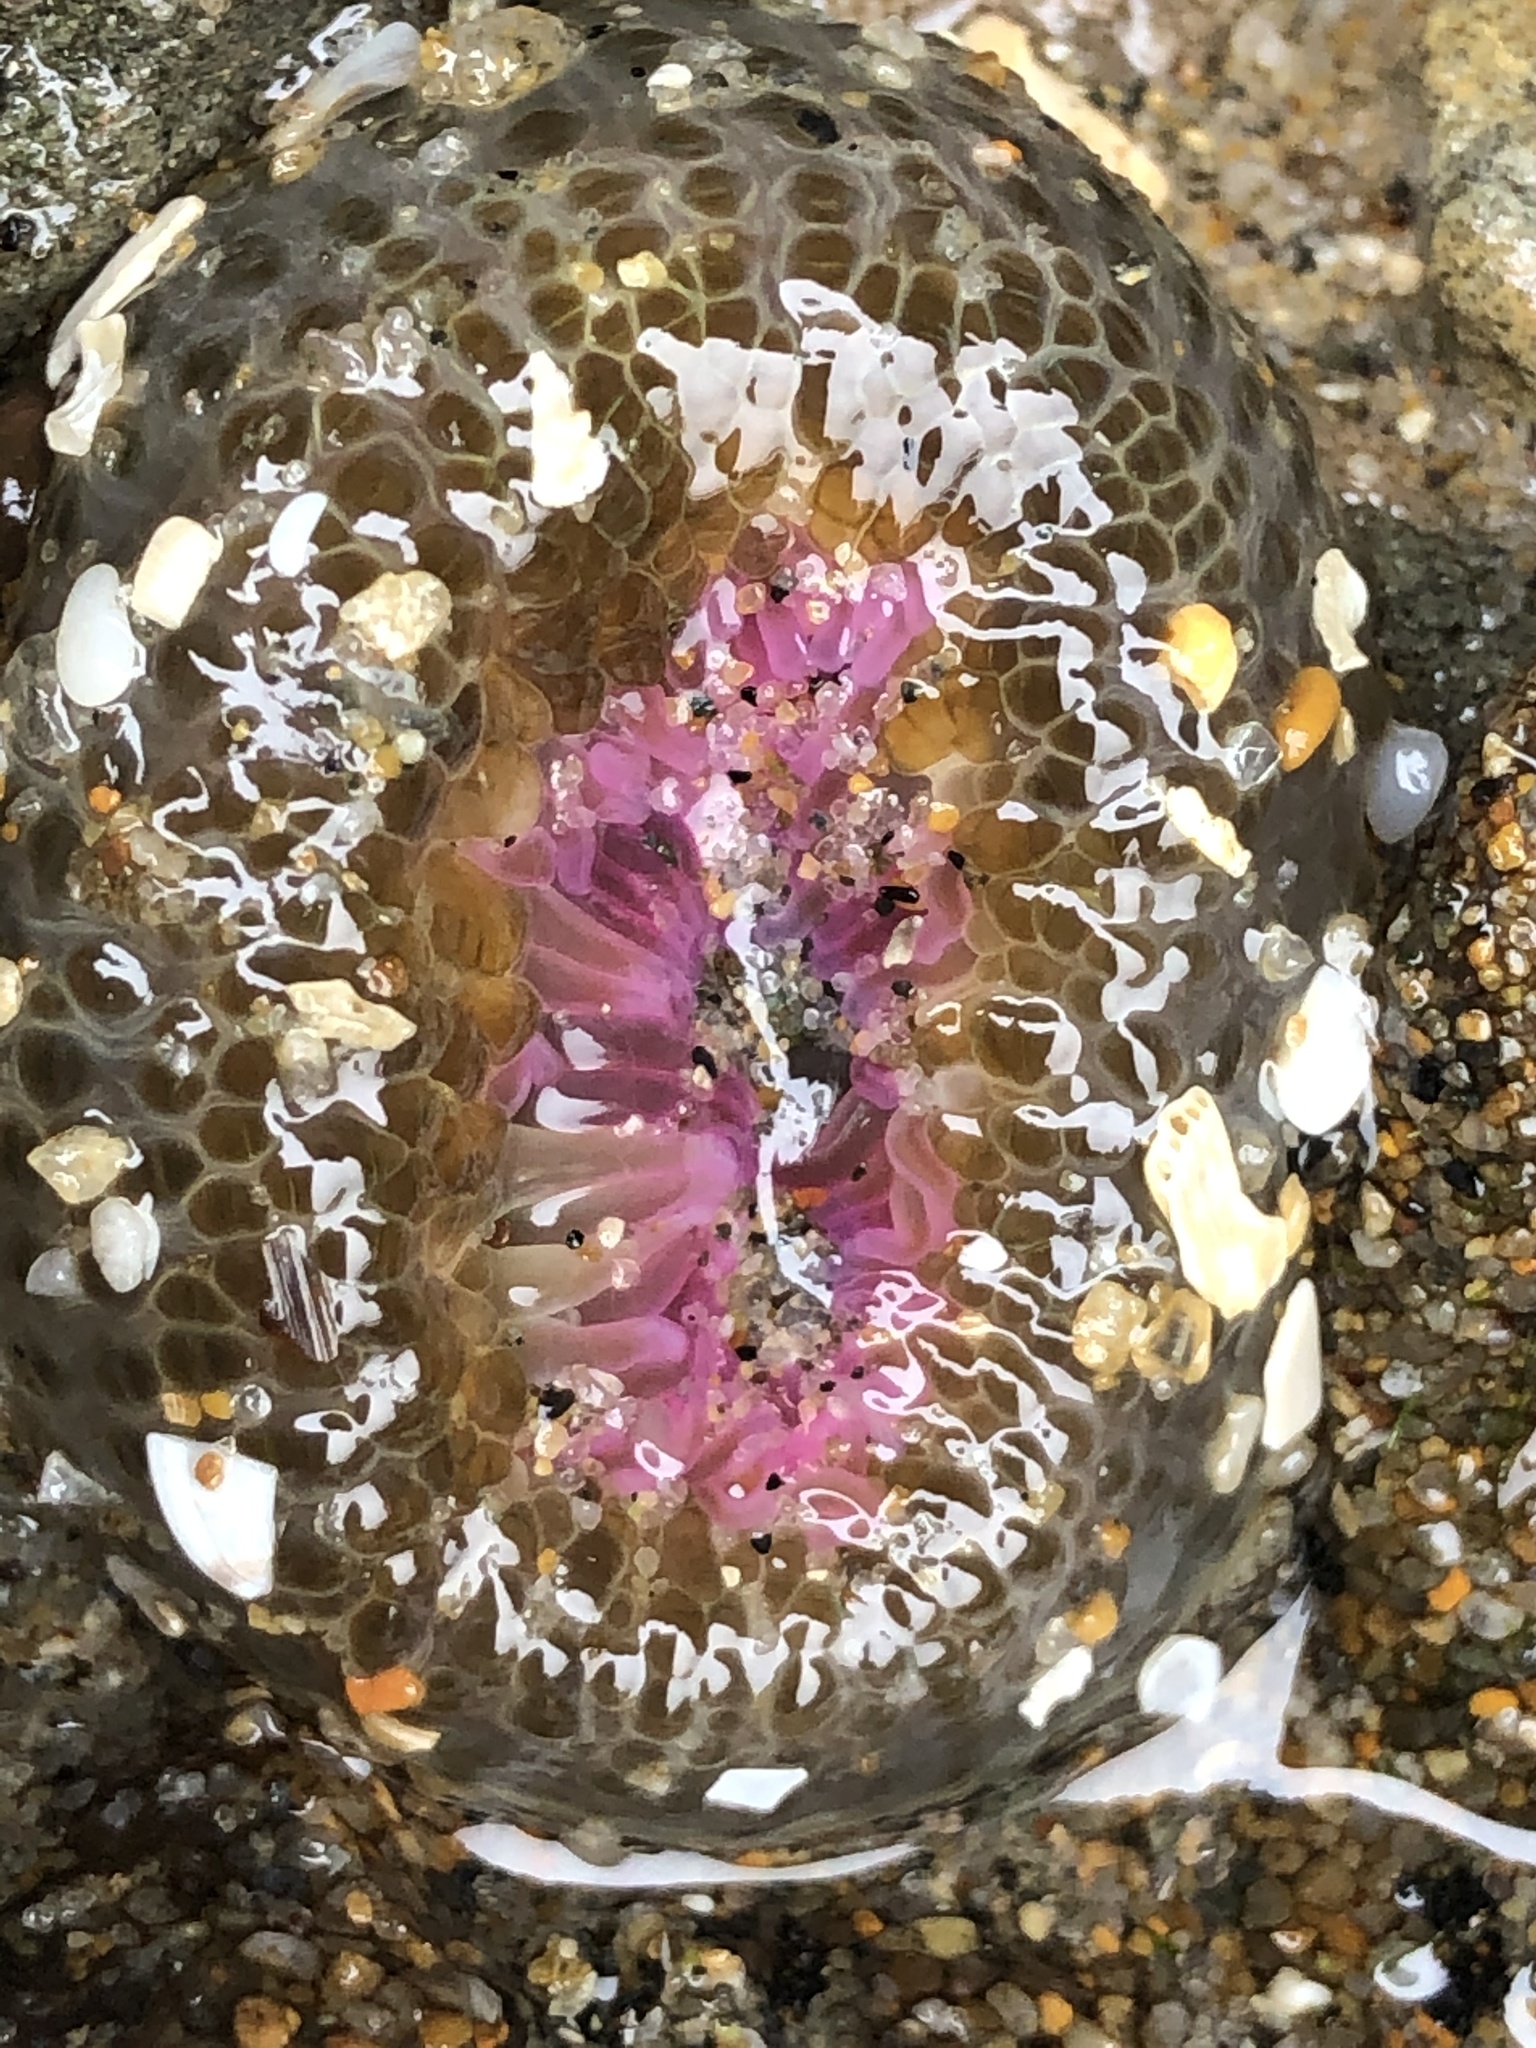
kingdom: Animalia
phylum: Cnidaria
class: Anthozoa
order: Actiniaria
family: Actiniidae
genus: Anthopleura
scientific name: Anthopleura elegantissima
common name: Clonal anemone
